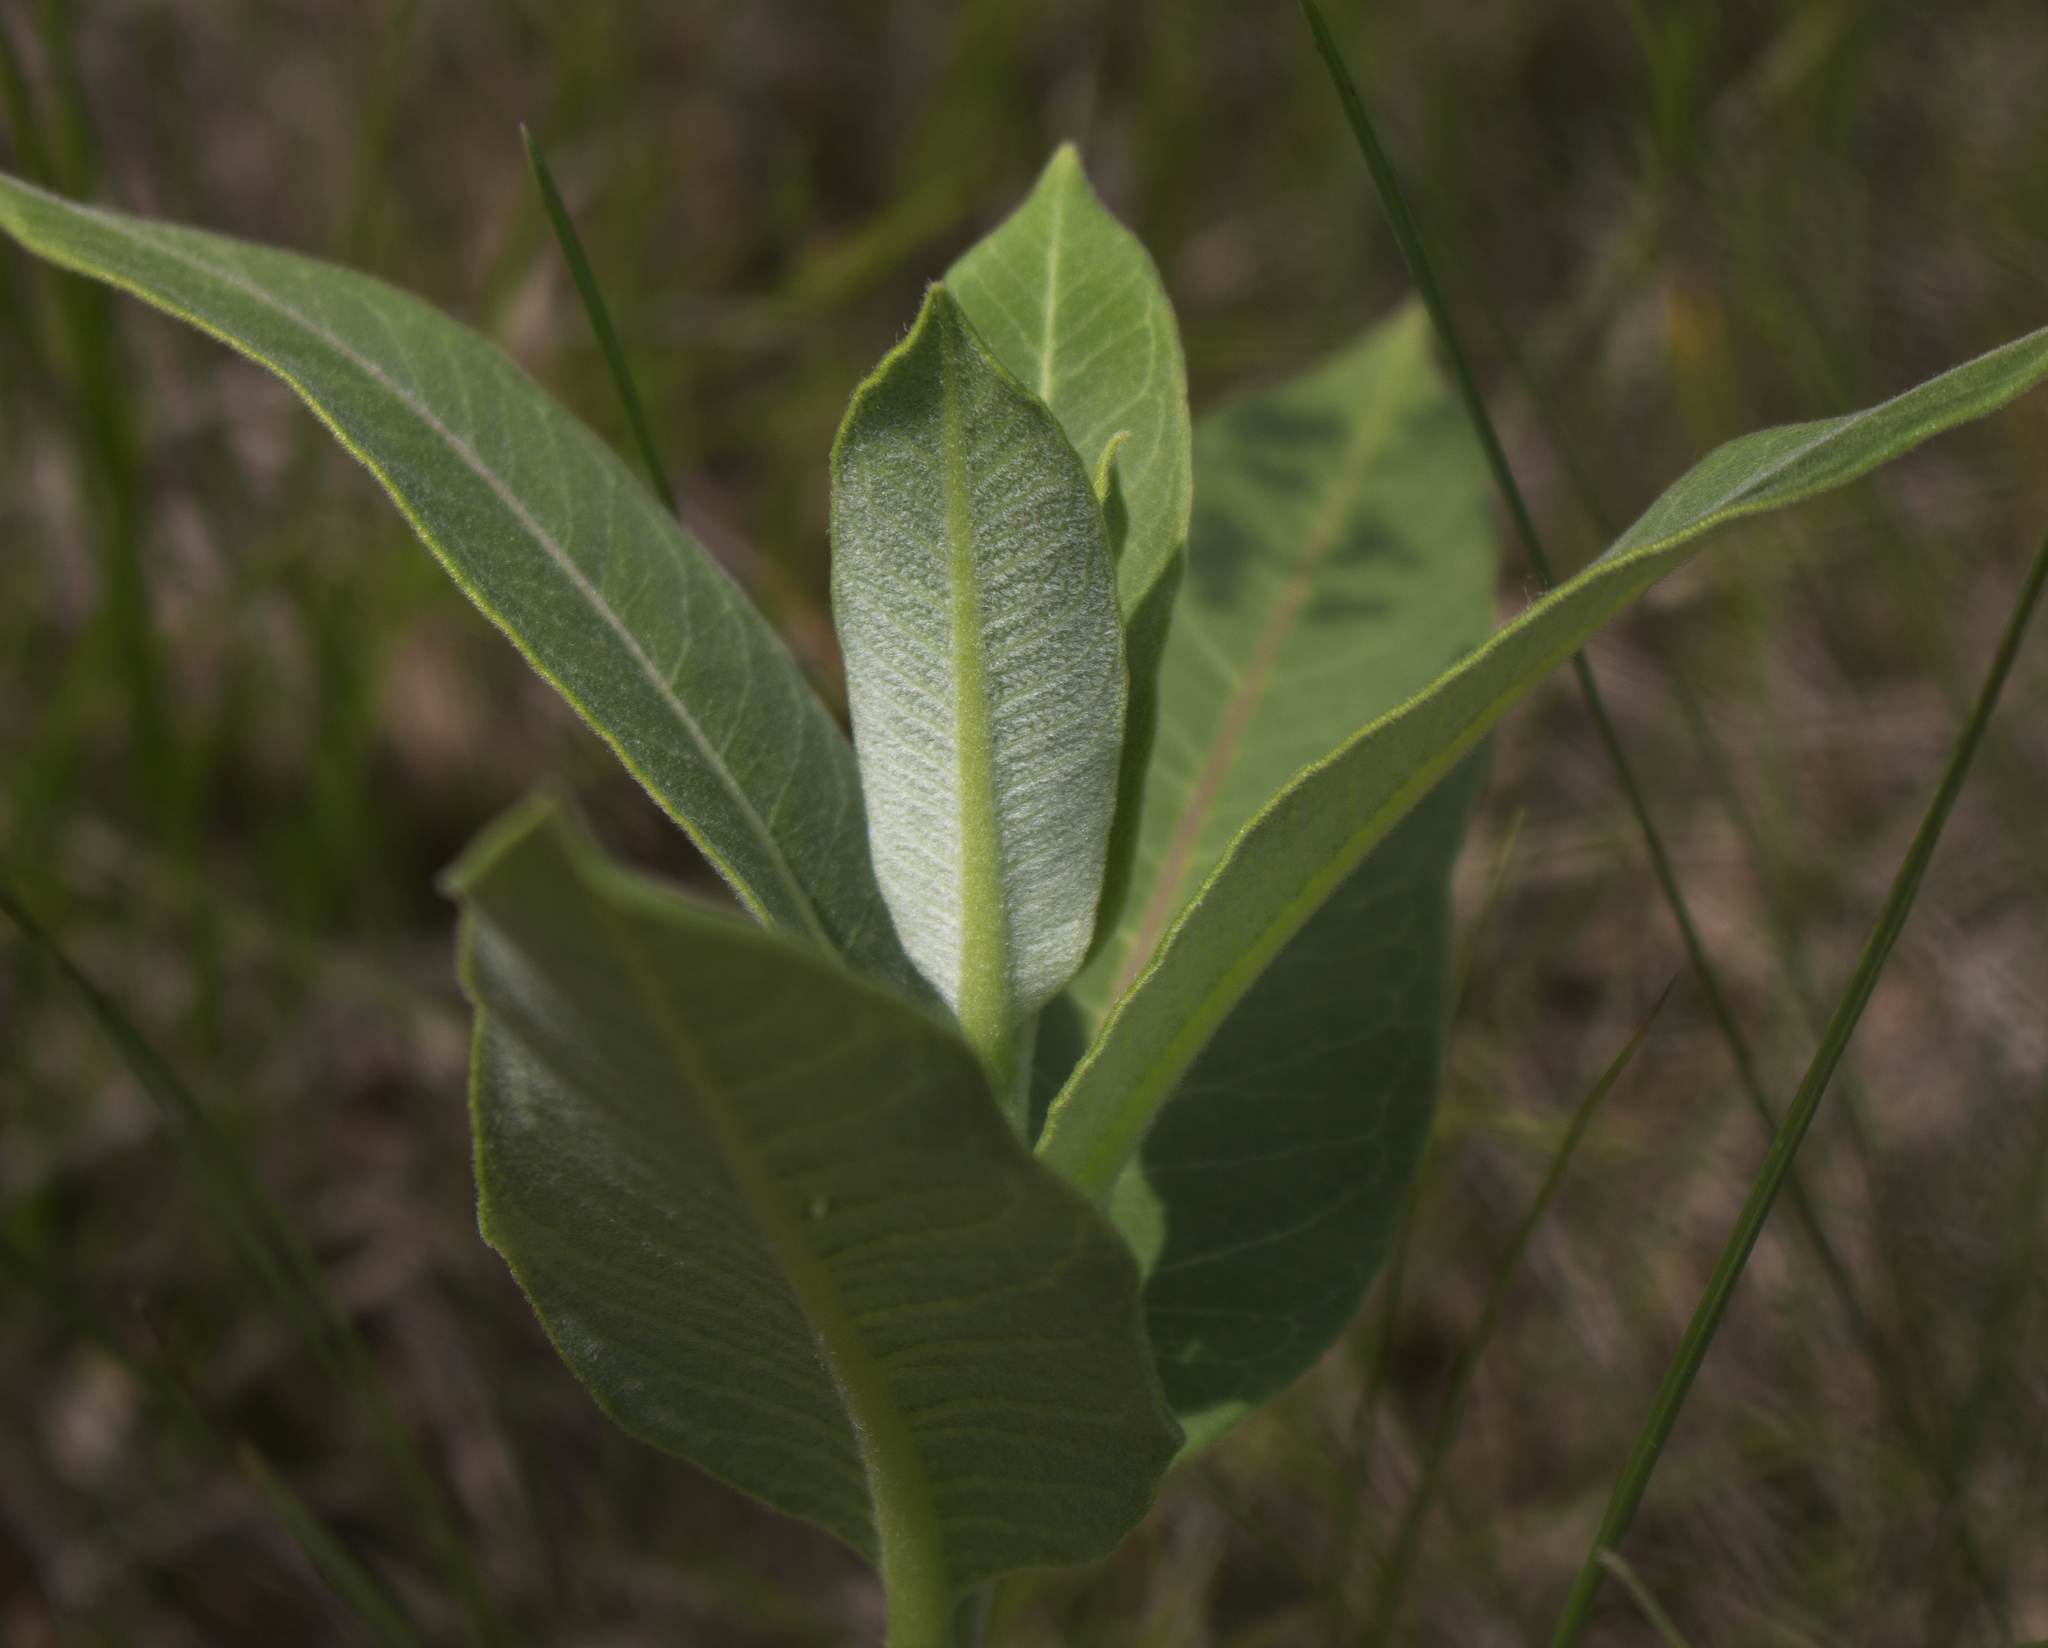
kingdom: Plantae
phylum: Tracheophyta
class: Magnoliopsida
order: Gentianales
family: Apocynaceae
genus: Asclepias
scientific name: Asclepias syriaca
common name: Common milkweed
